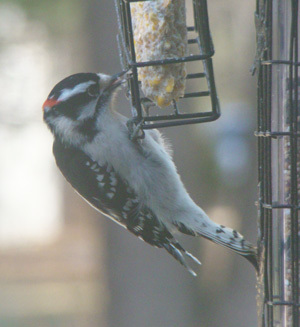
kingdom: Animalia
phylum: Chordata
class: Aves
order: Piciformes
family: Picidae
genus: Dryobates
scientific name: Dryobates pubescens
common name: Downy woodpecker
